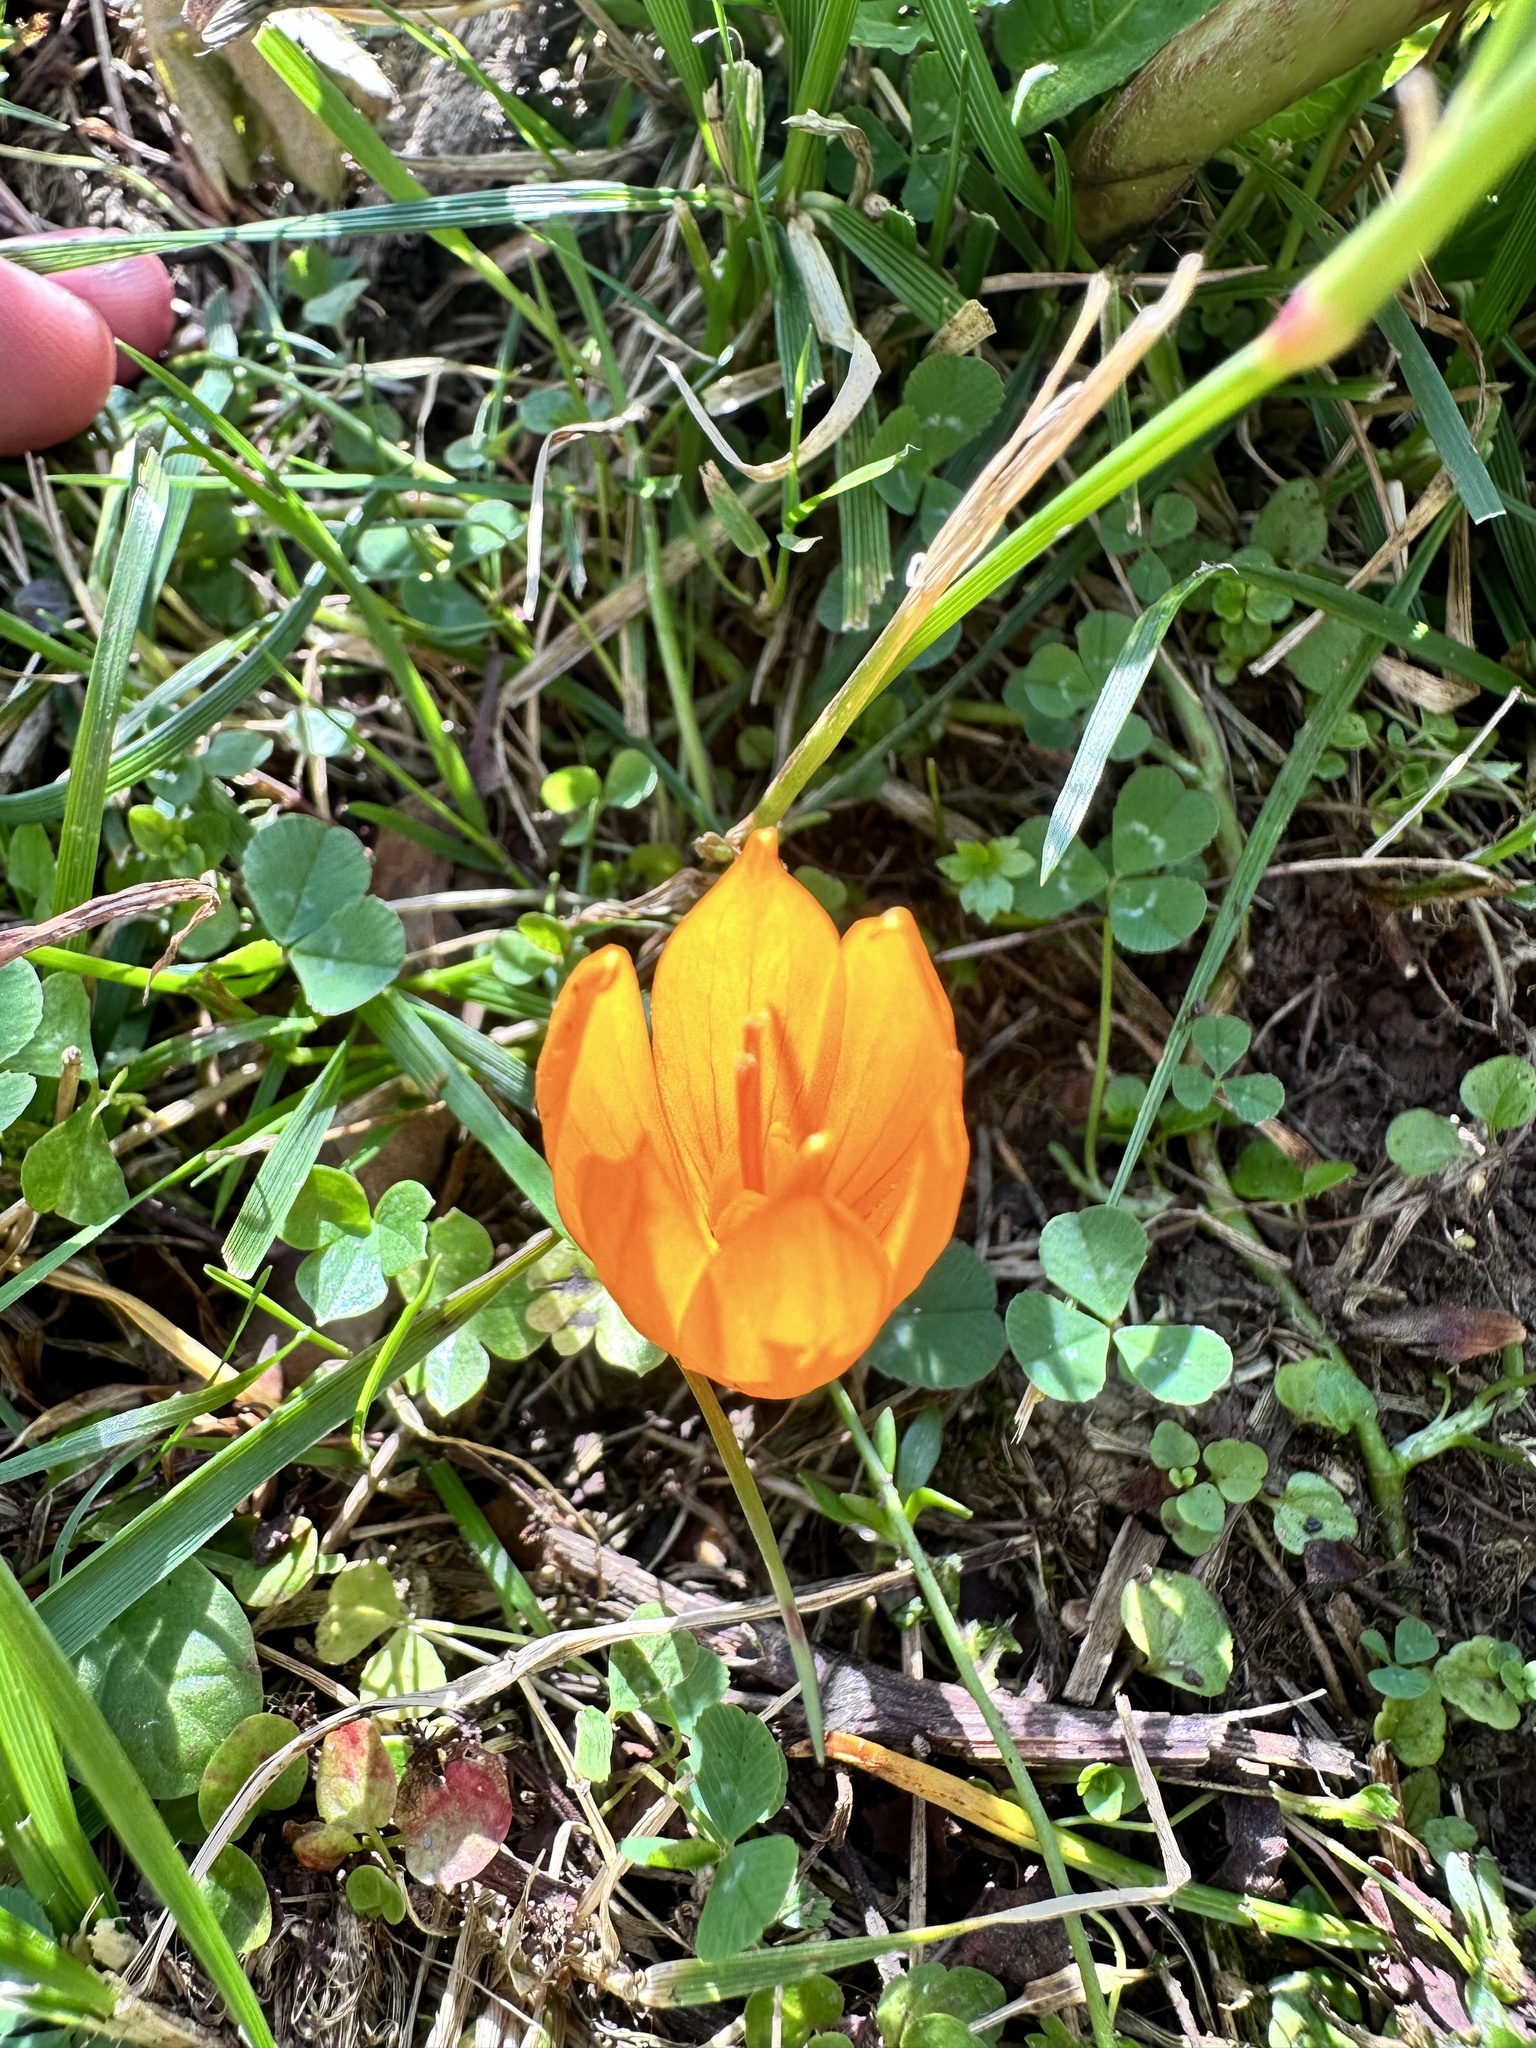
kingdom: Plantae
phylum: Tracheophyta
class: Liliopsida
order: Asparagales
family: Iridaceae
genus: Crocus
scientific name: Crocus scharojanii
